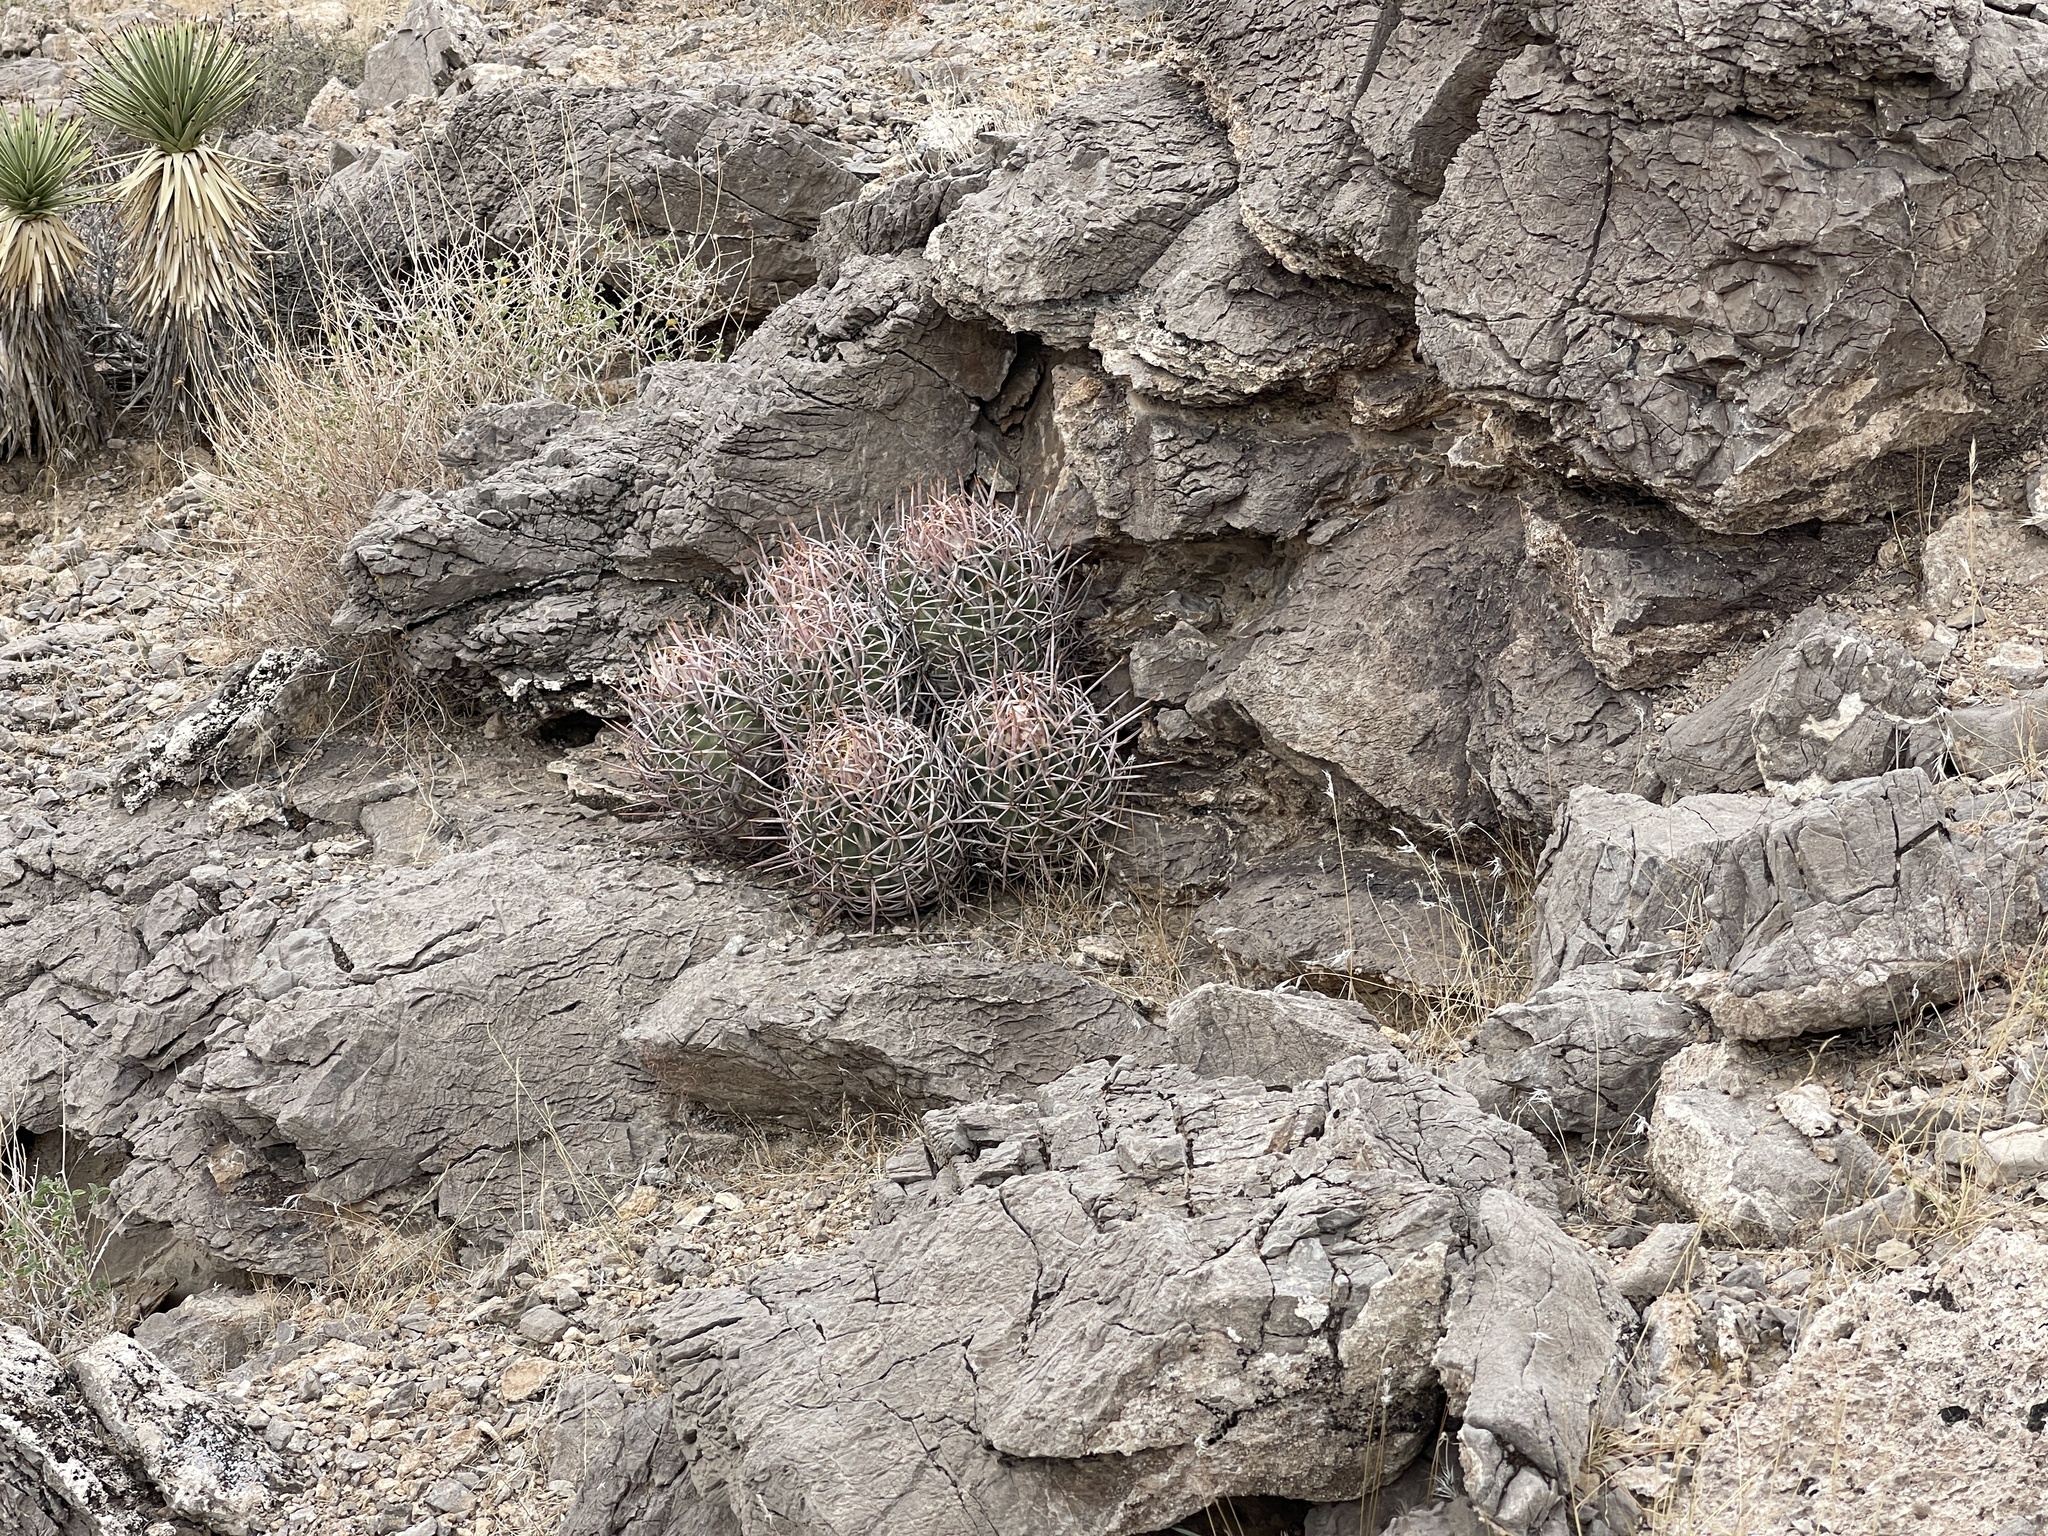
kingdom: Plantae
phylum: Tracheophyta
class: Magnoliopsida
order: Caryophyllales
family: Cactaceae
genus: Echinocactus
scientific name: Echinocactus polycephalus
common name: Cottontop cactus
